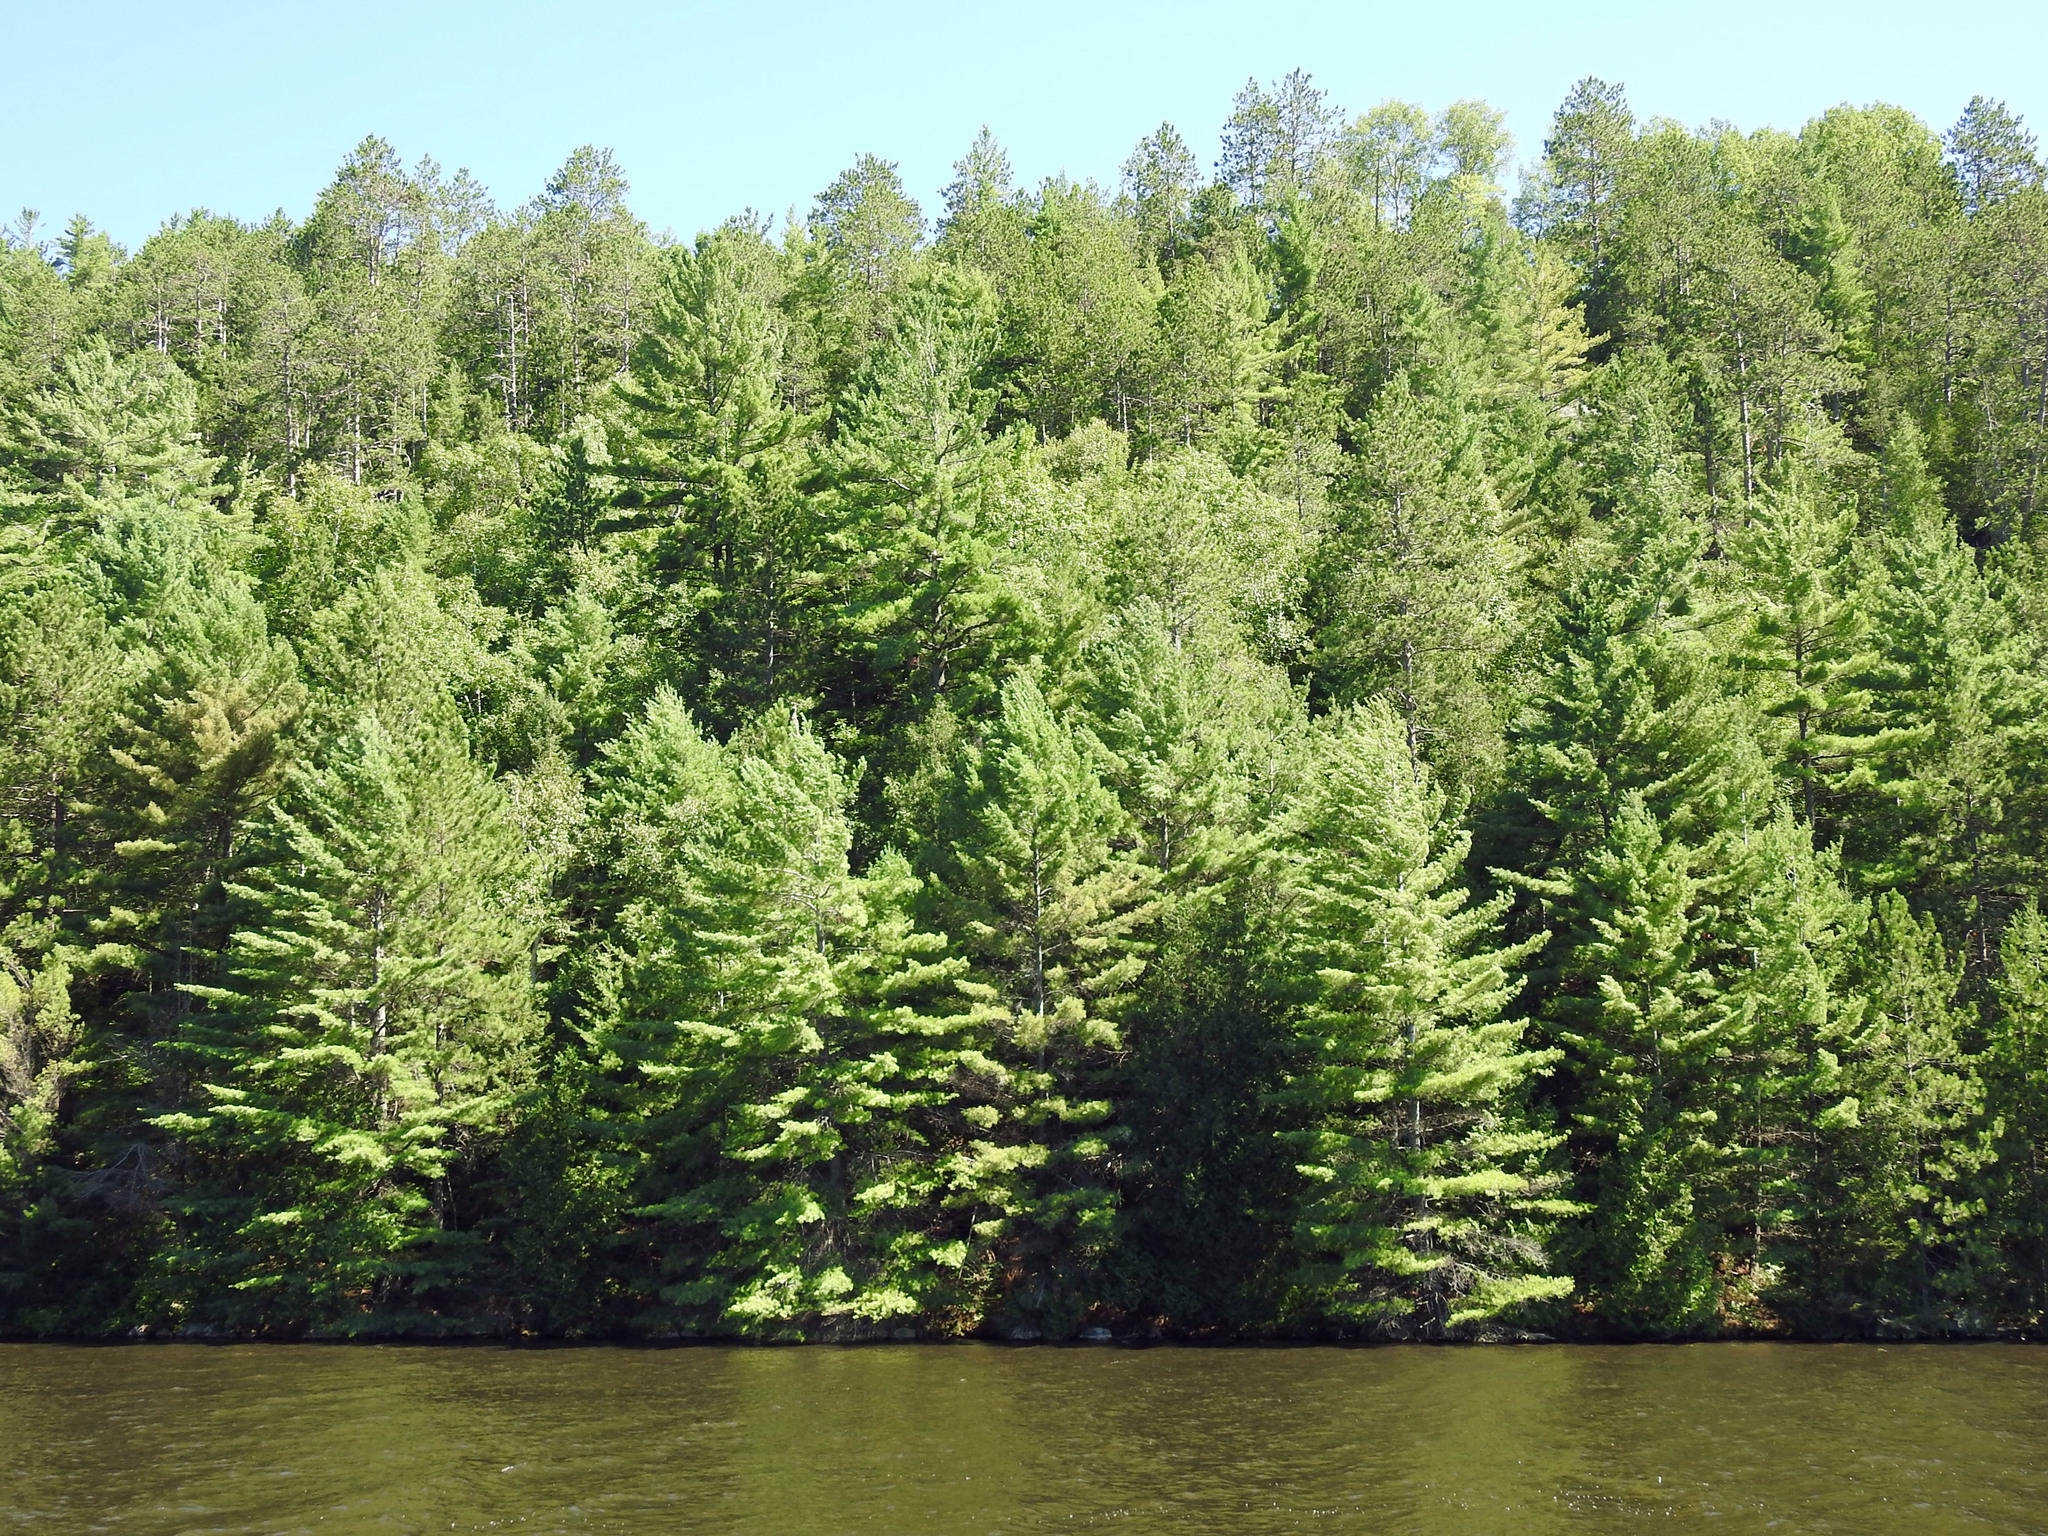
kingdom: Plantae
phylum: Tracheophyta
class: Pinopsida
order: Pinales
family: Pinaceae
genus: Pinus
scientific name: Pinus strobus
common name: Weymouth pine
